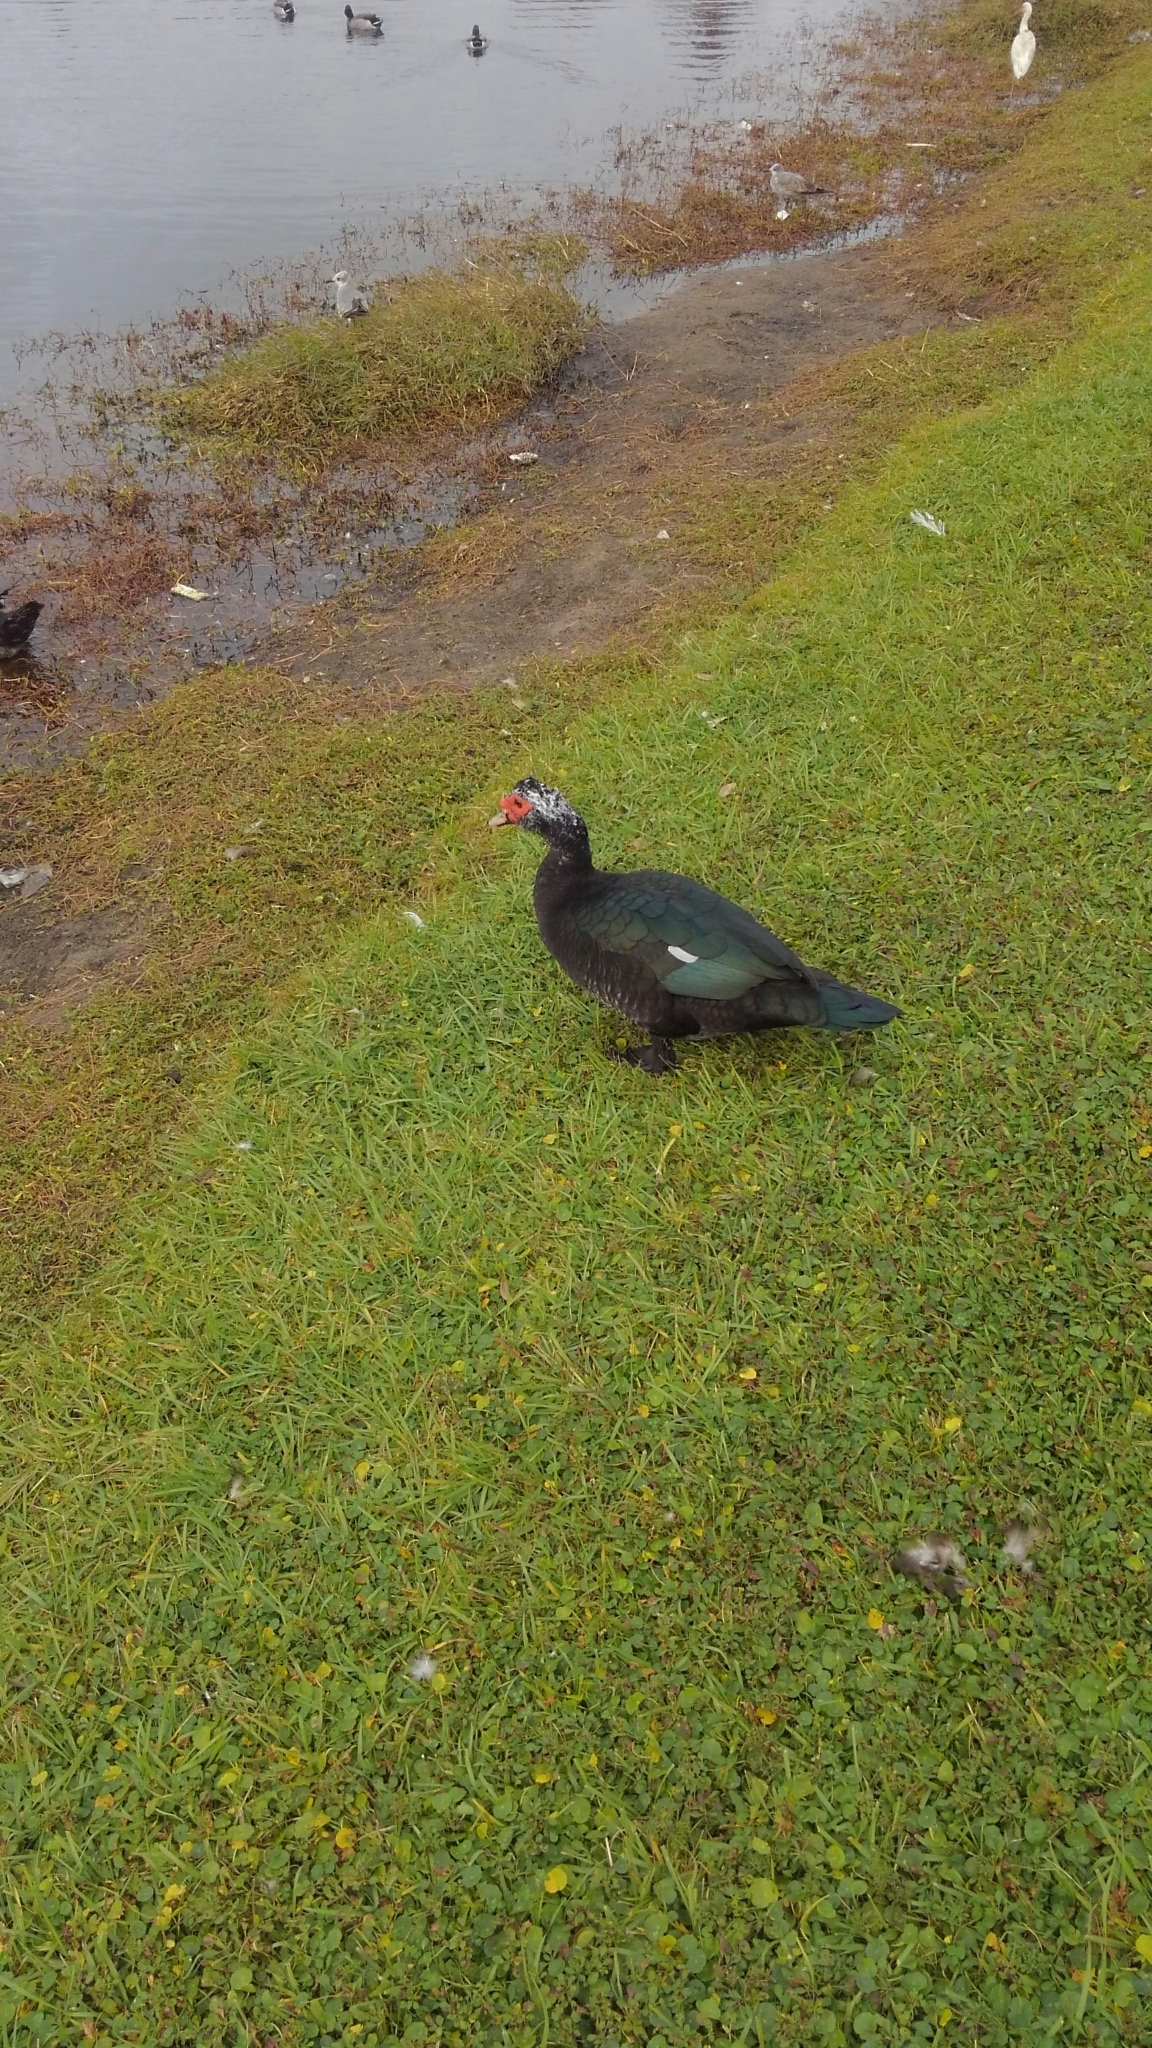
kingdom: Animalia
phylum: Chordata
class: Aves
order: Anseriformes
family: Anatidae
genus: Cairina
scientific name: Cairina moschata
